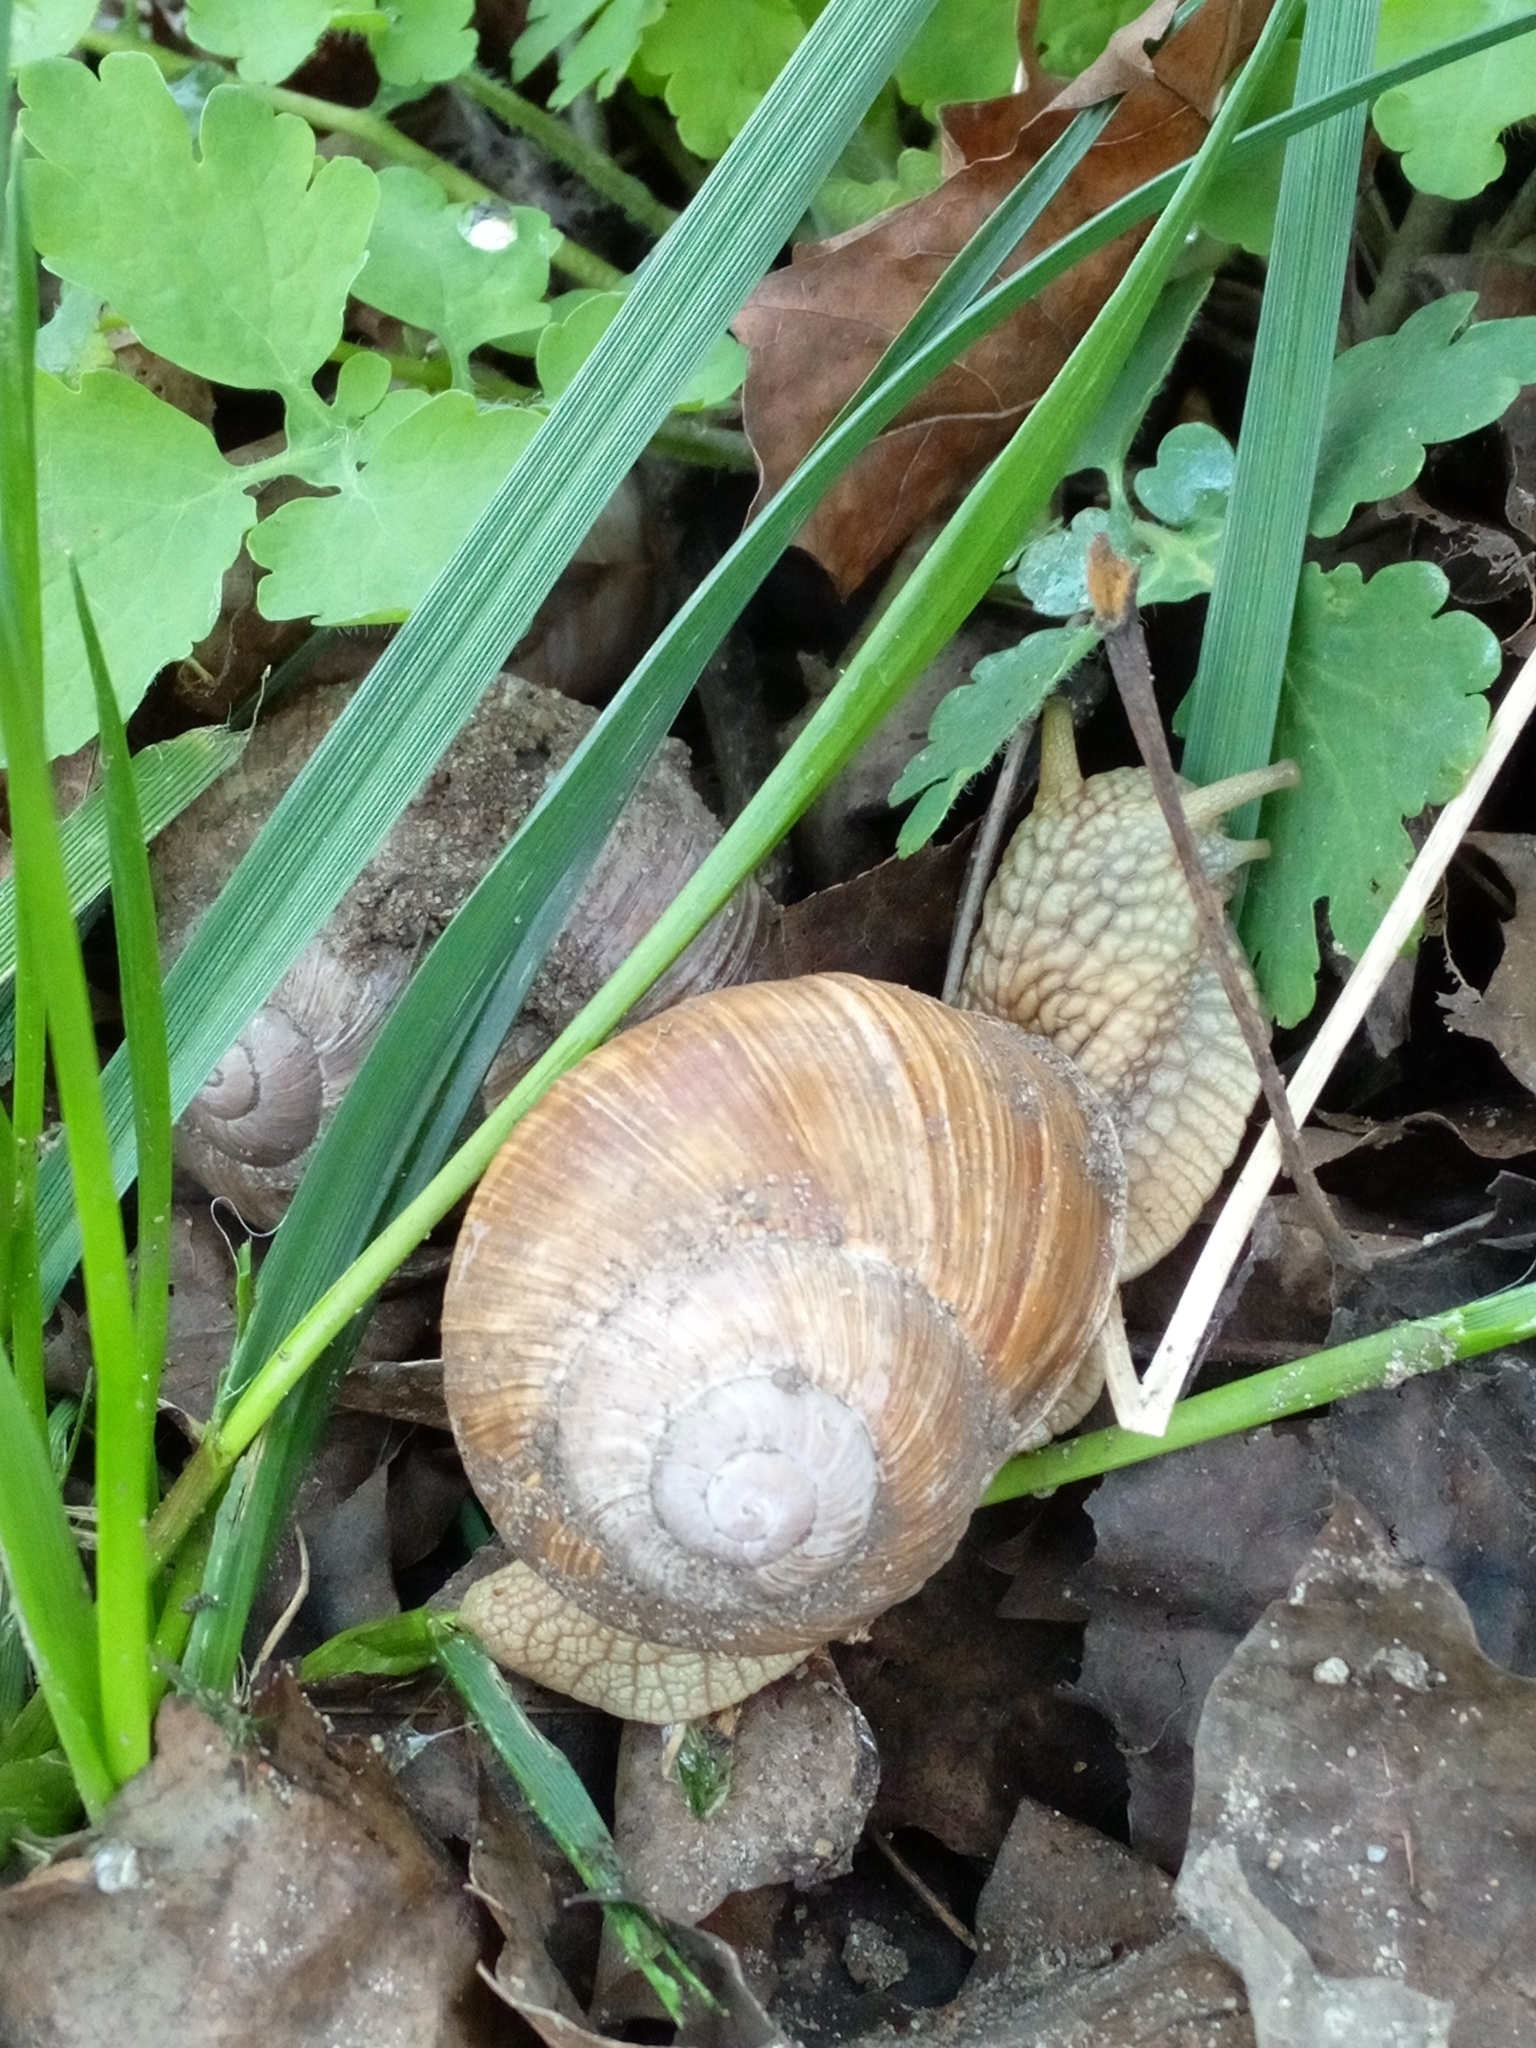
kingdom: Animalia
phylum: Mollusca
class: Gastropoda
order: Stylommatophora
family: Helicidae
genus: Helix
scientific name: Helix pomatia
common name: Roman snail
